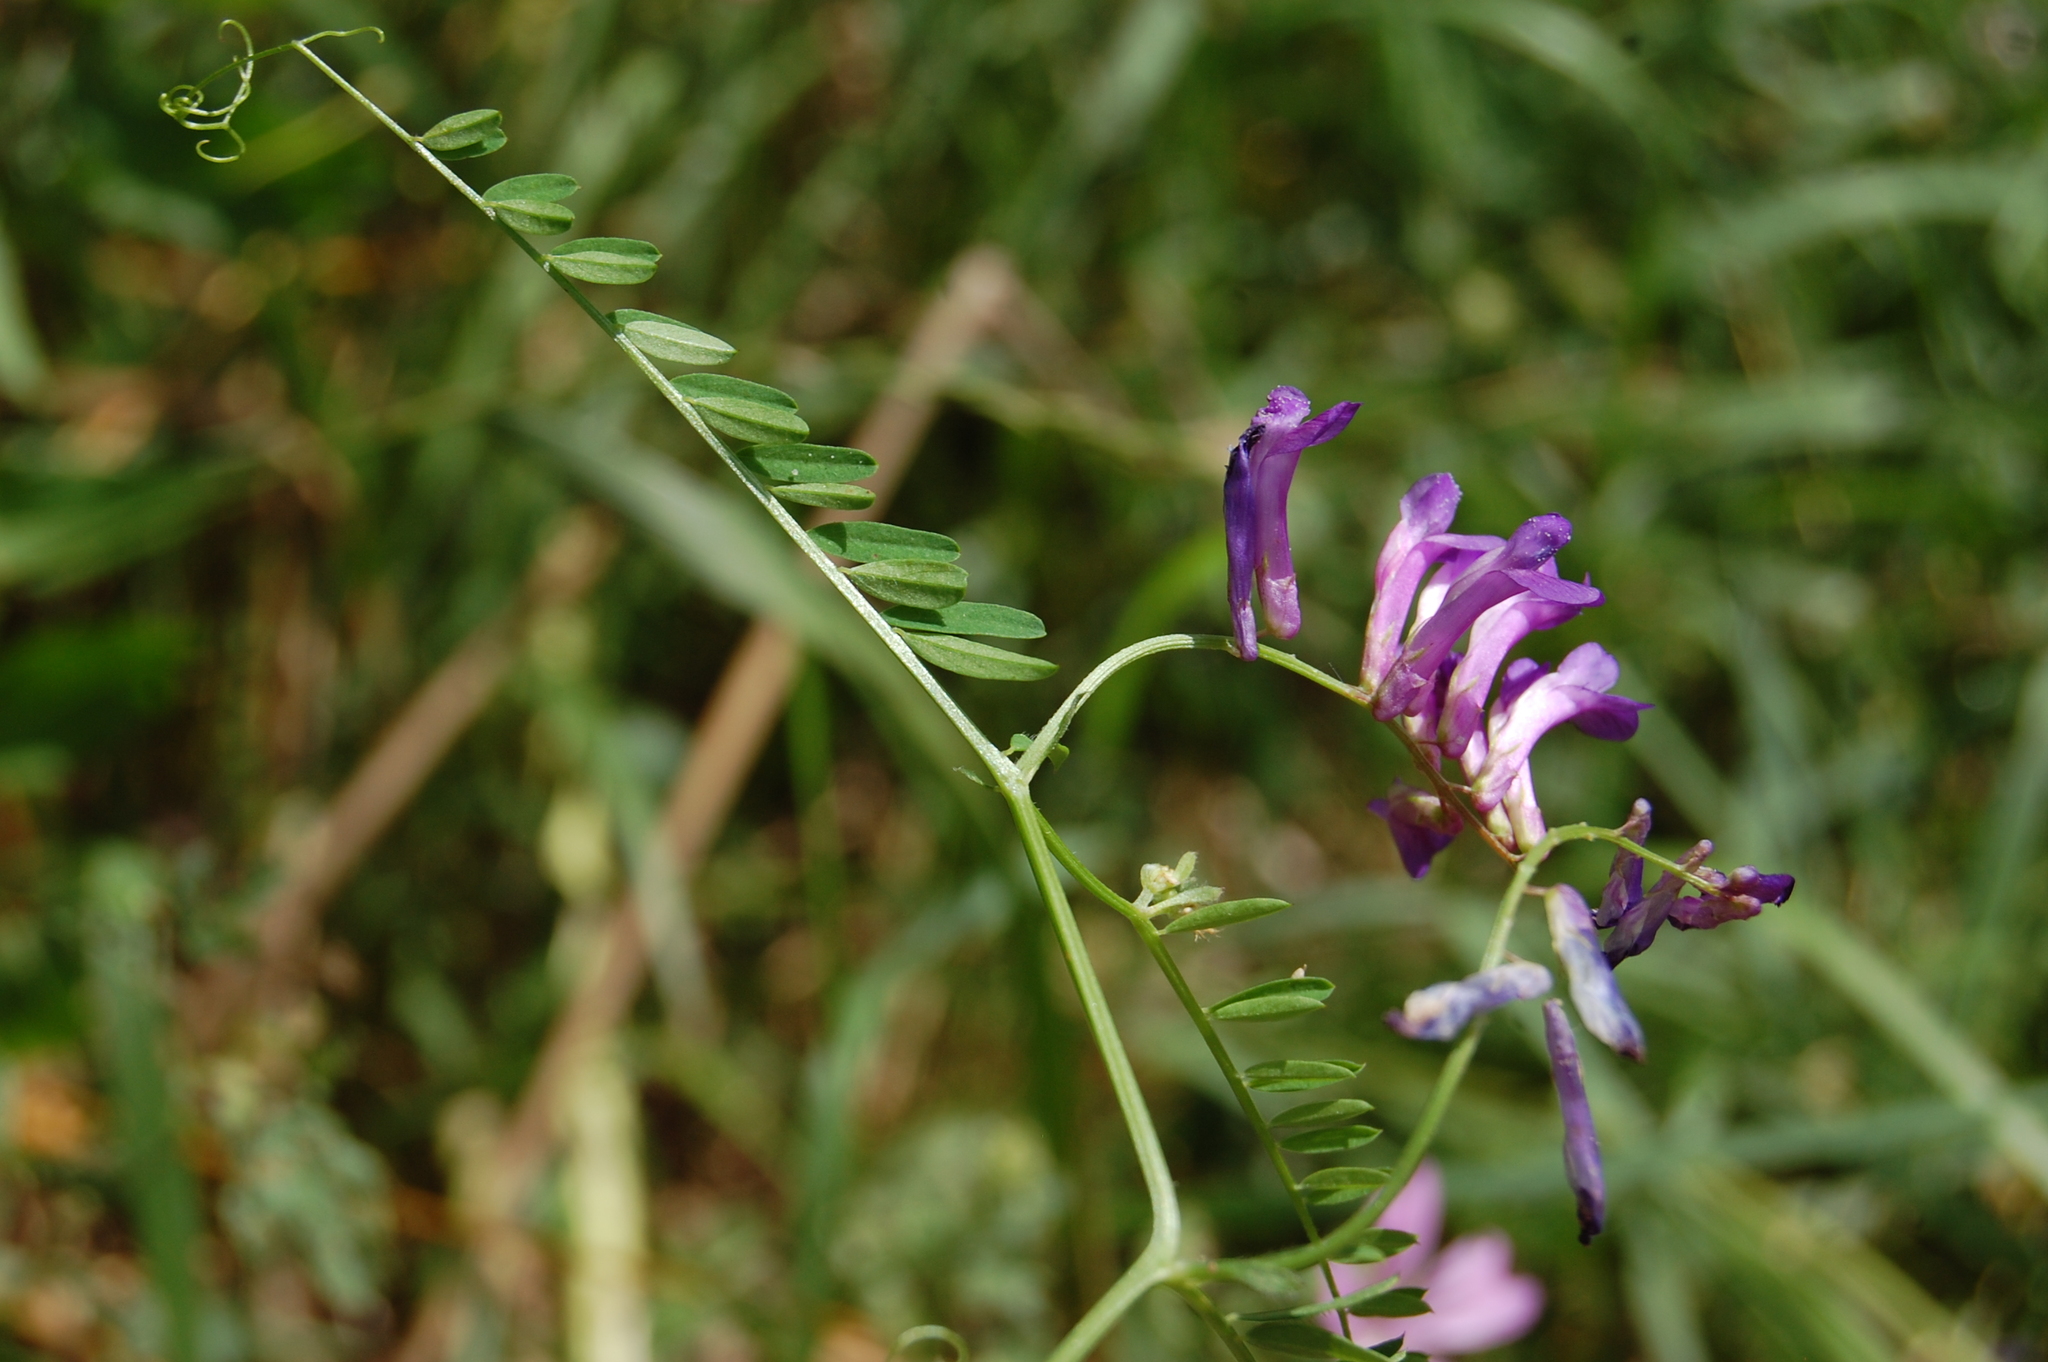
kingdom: Plantae
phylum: Tracheophyta
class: Magnoliopsida
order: Fabales
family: Fabaceae
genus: Vicia
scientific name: Vicia villosa
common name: Fodder vetch
